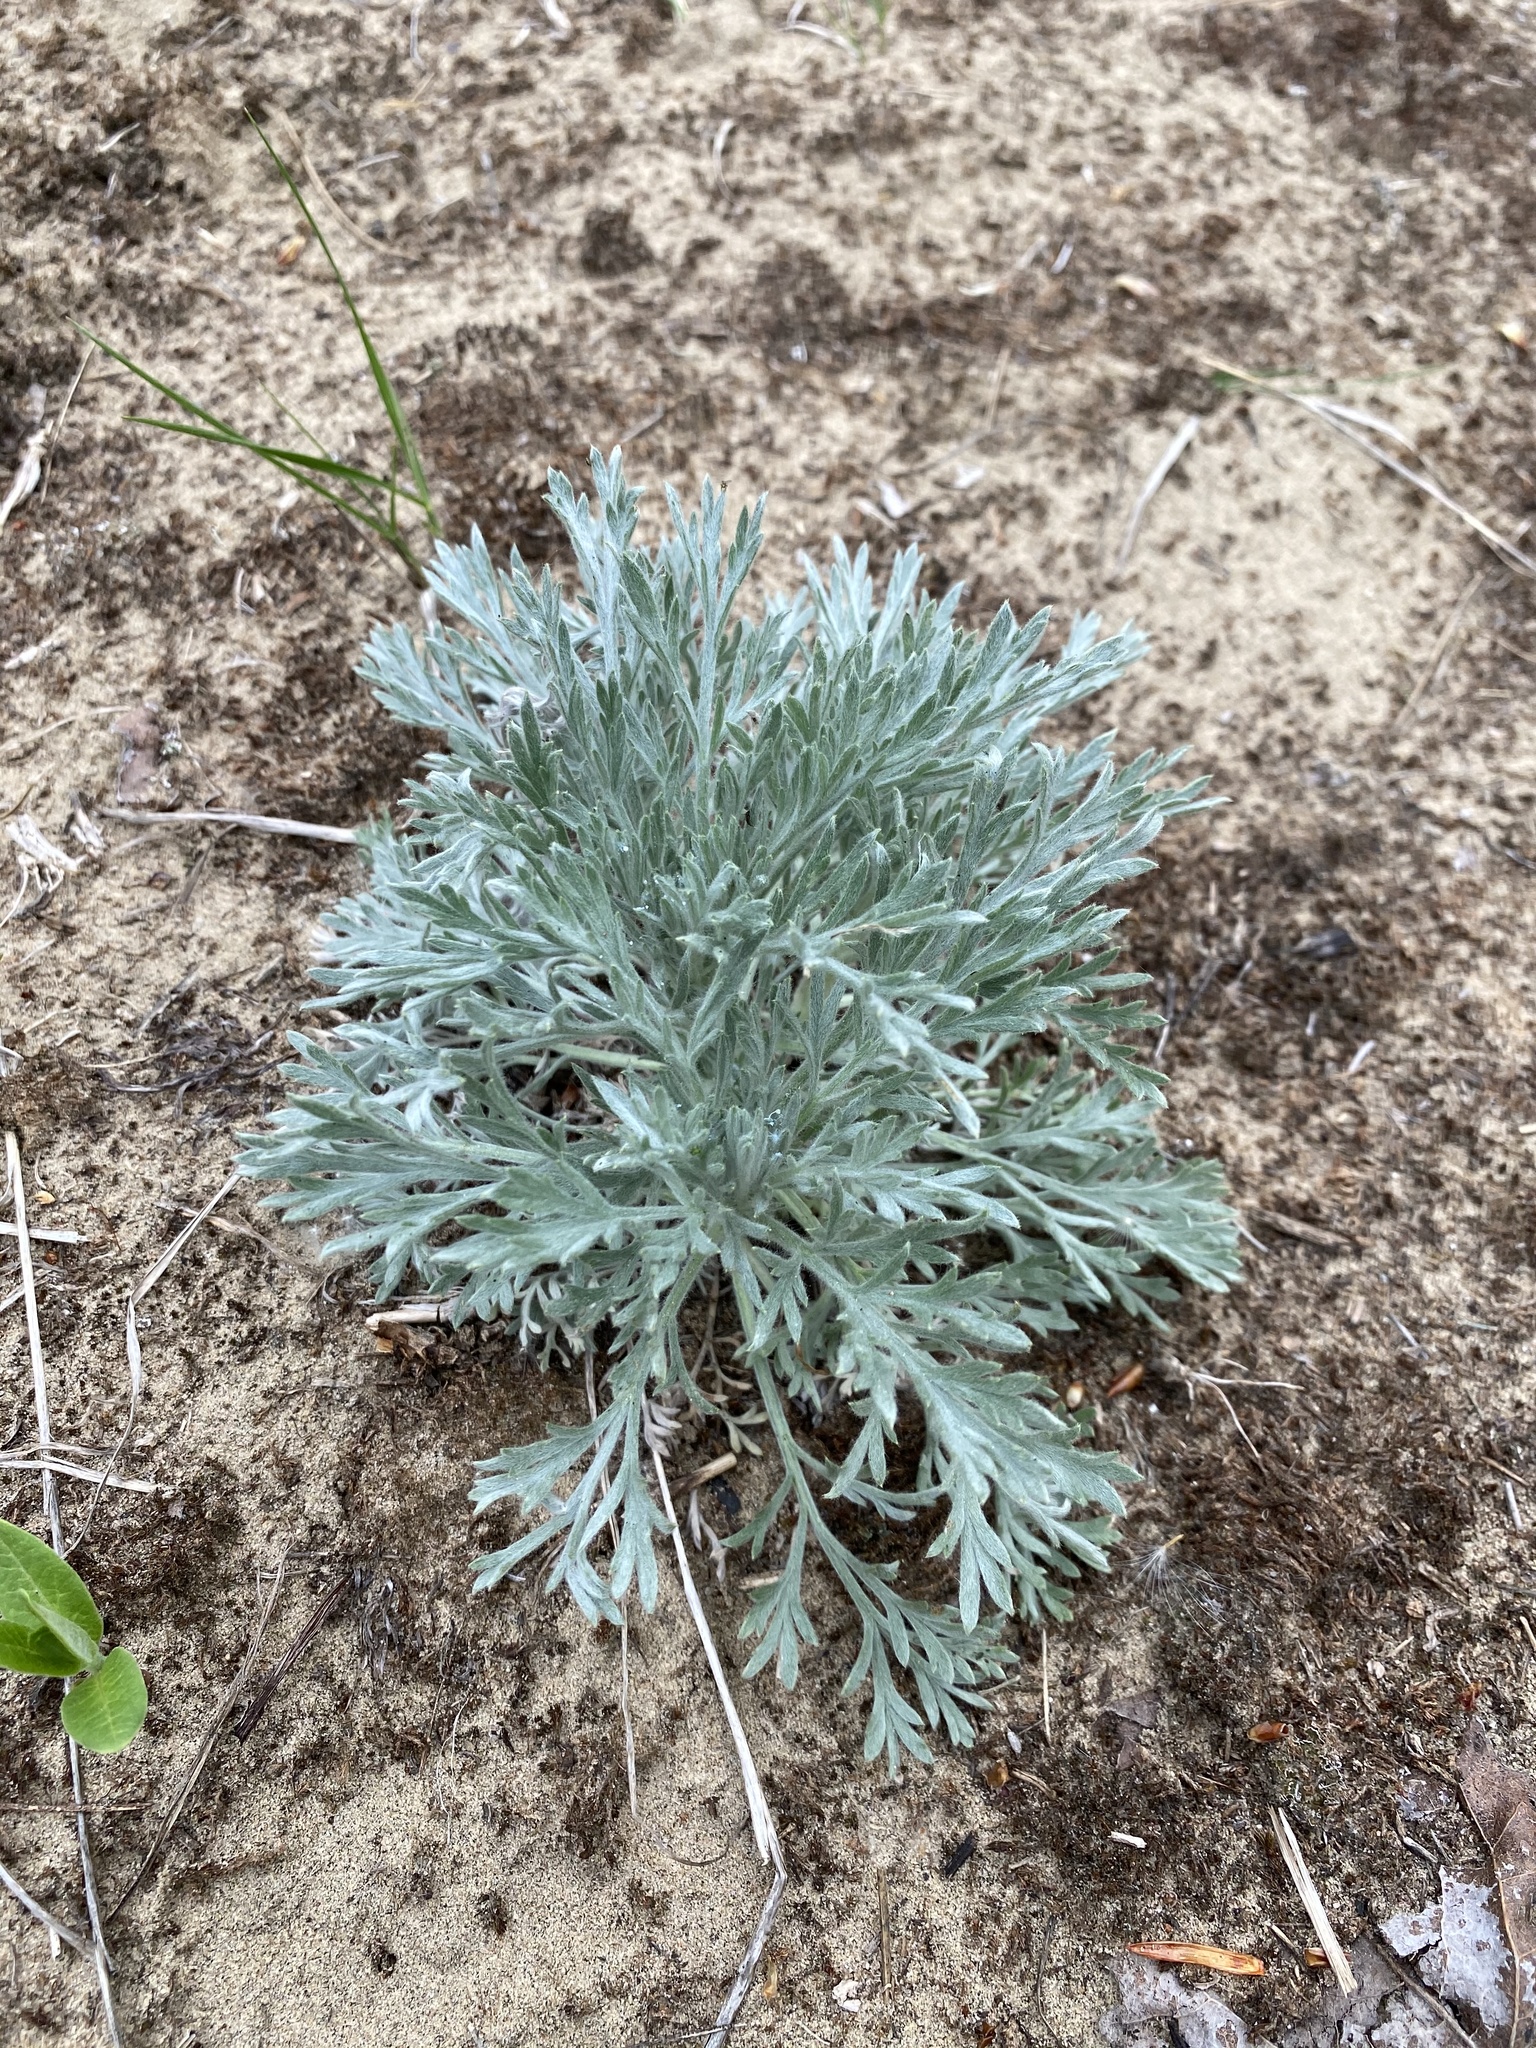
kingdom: Plantae
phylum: Tracheophyta
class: Magnoliopsida
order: Asterales
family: Asteraceae
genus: Artemisia
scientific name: Artemisia campestris
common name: Field wormwood
